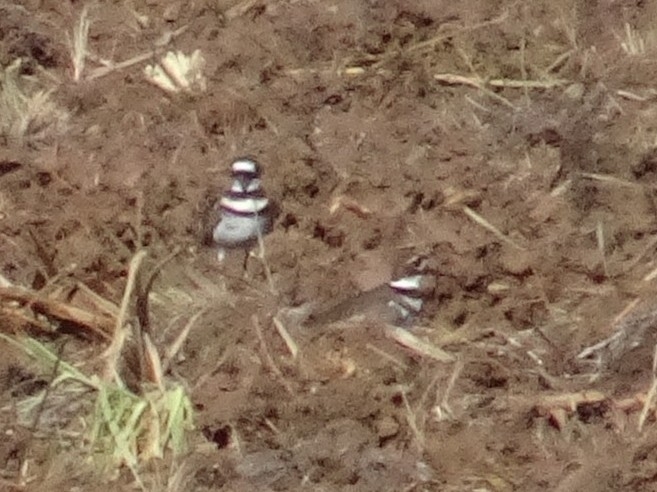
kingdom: Animalia
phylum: Chordata
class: Aves
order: Charadriiformes
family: Charadriidae
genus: Charadrius
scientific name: Charadrius vociferus
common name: Killdeer
